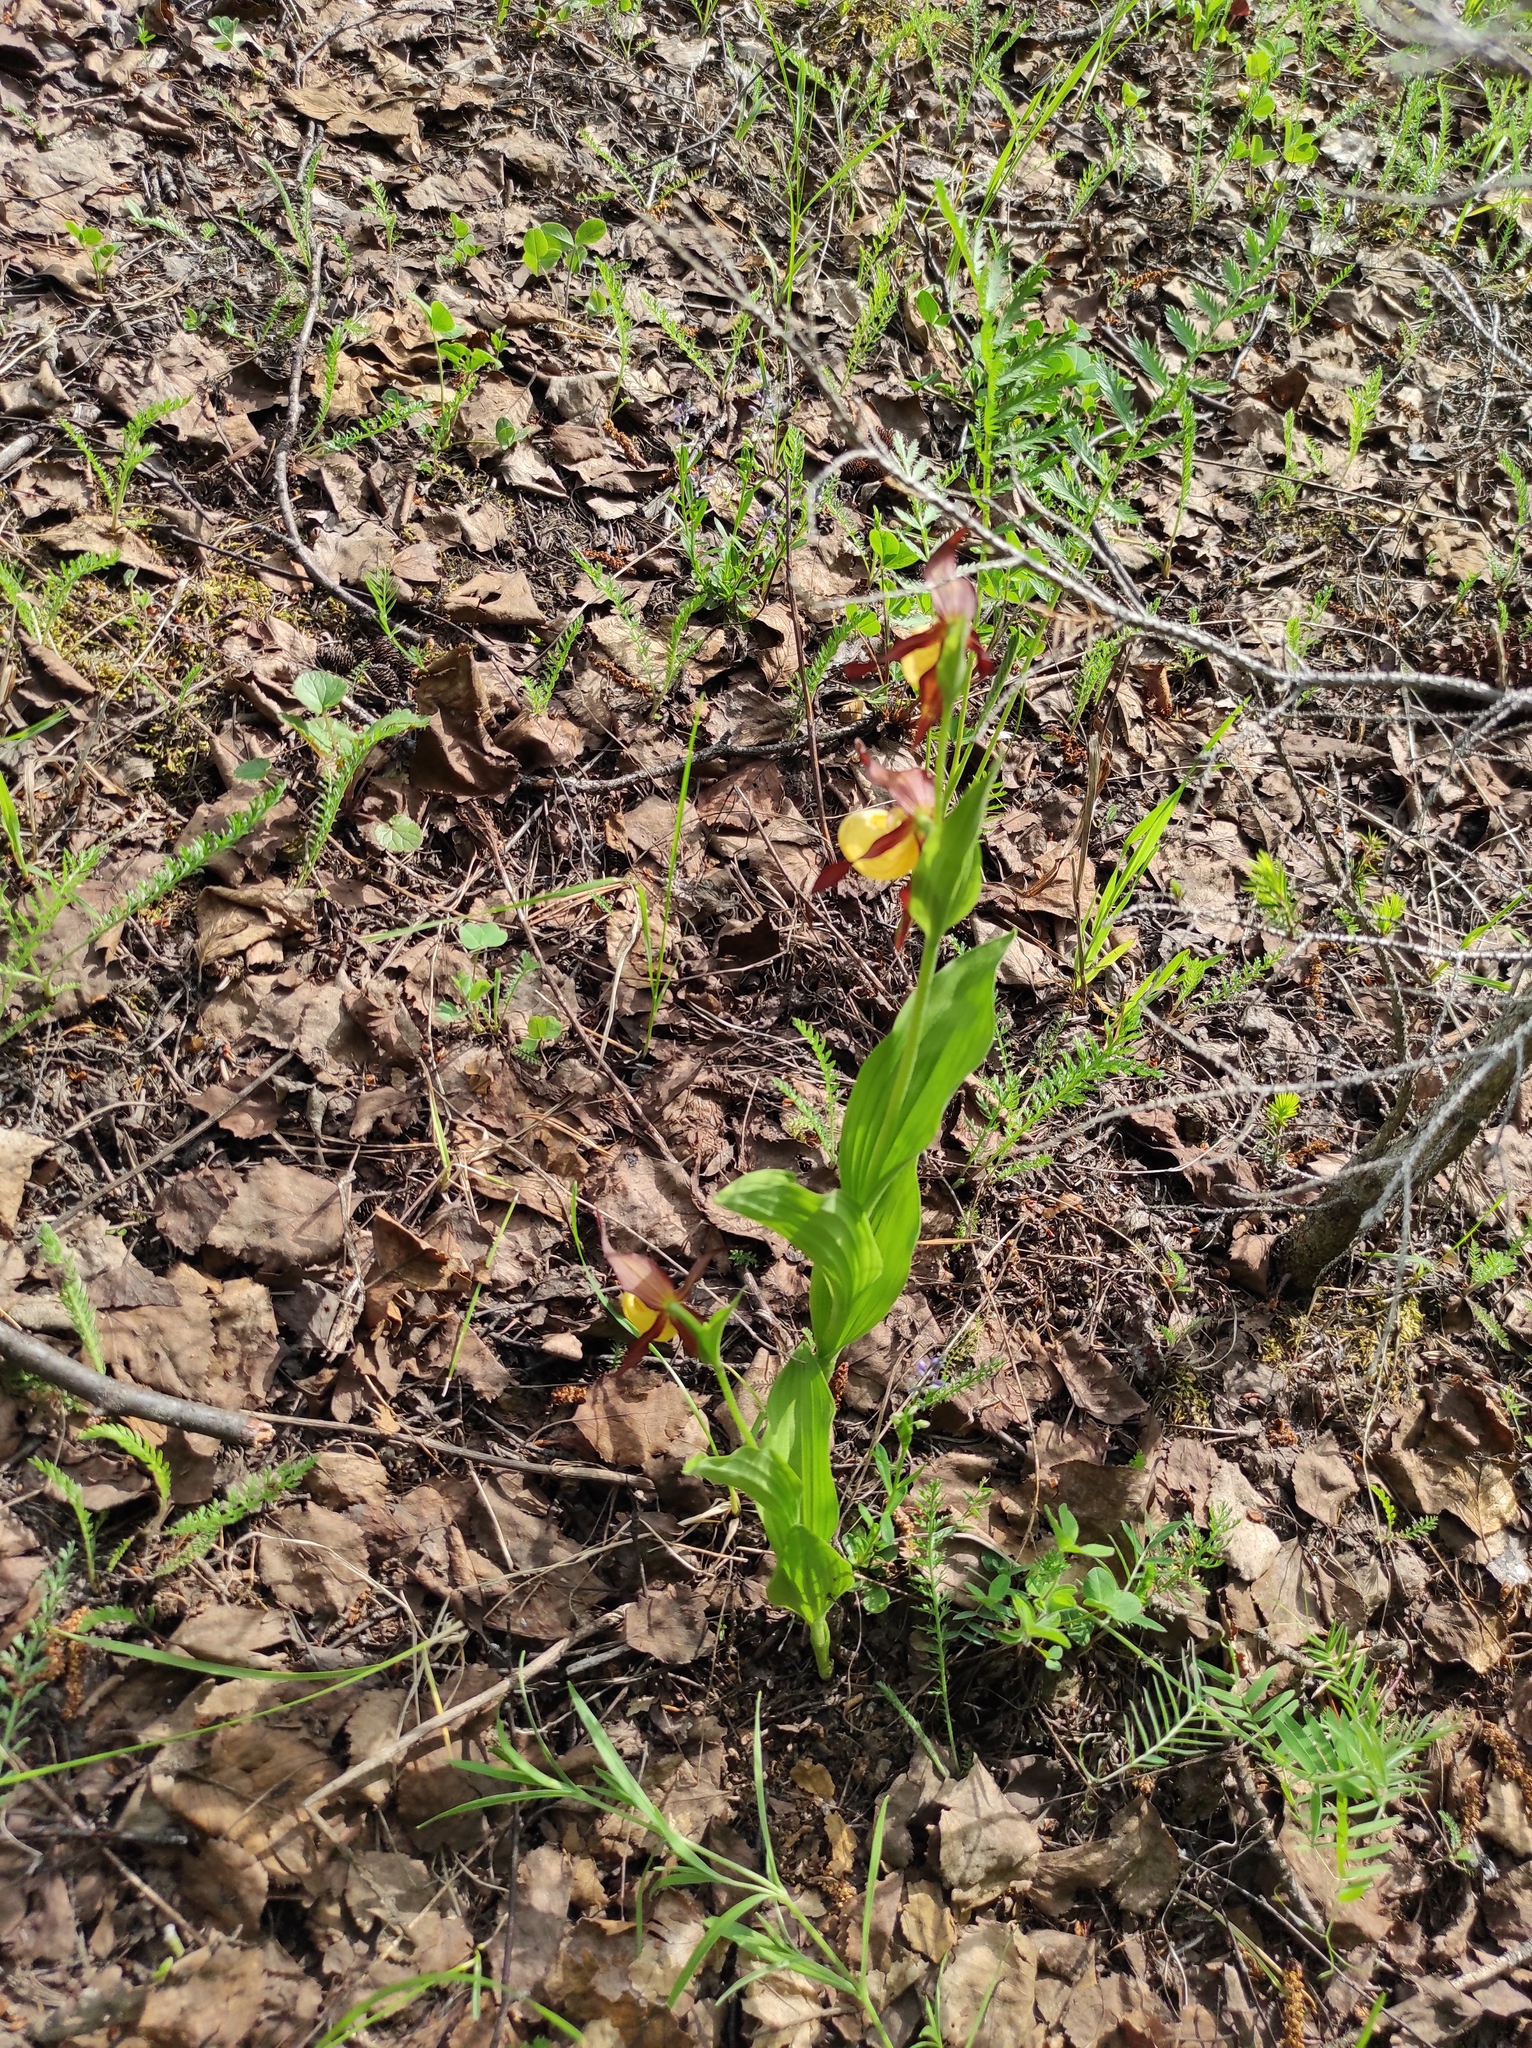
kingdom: Plantae
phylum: Tracheophyta
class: Liliopsida
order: Asparagales
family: Orchidaceae
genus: Cypripedium
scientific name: Cypripedium calceolus
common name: Lady's-slipper
